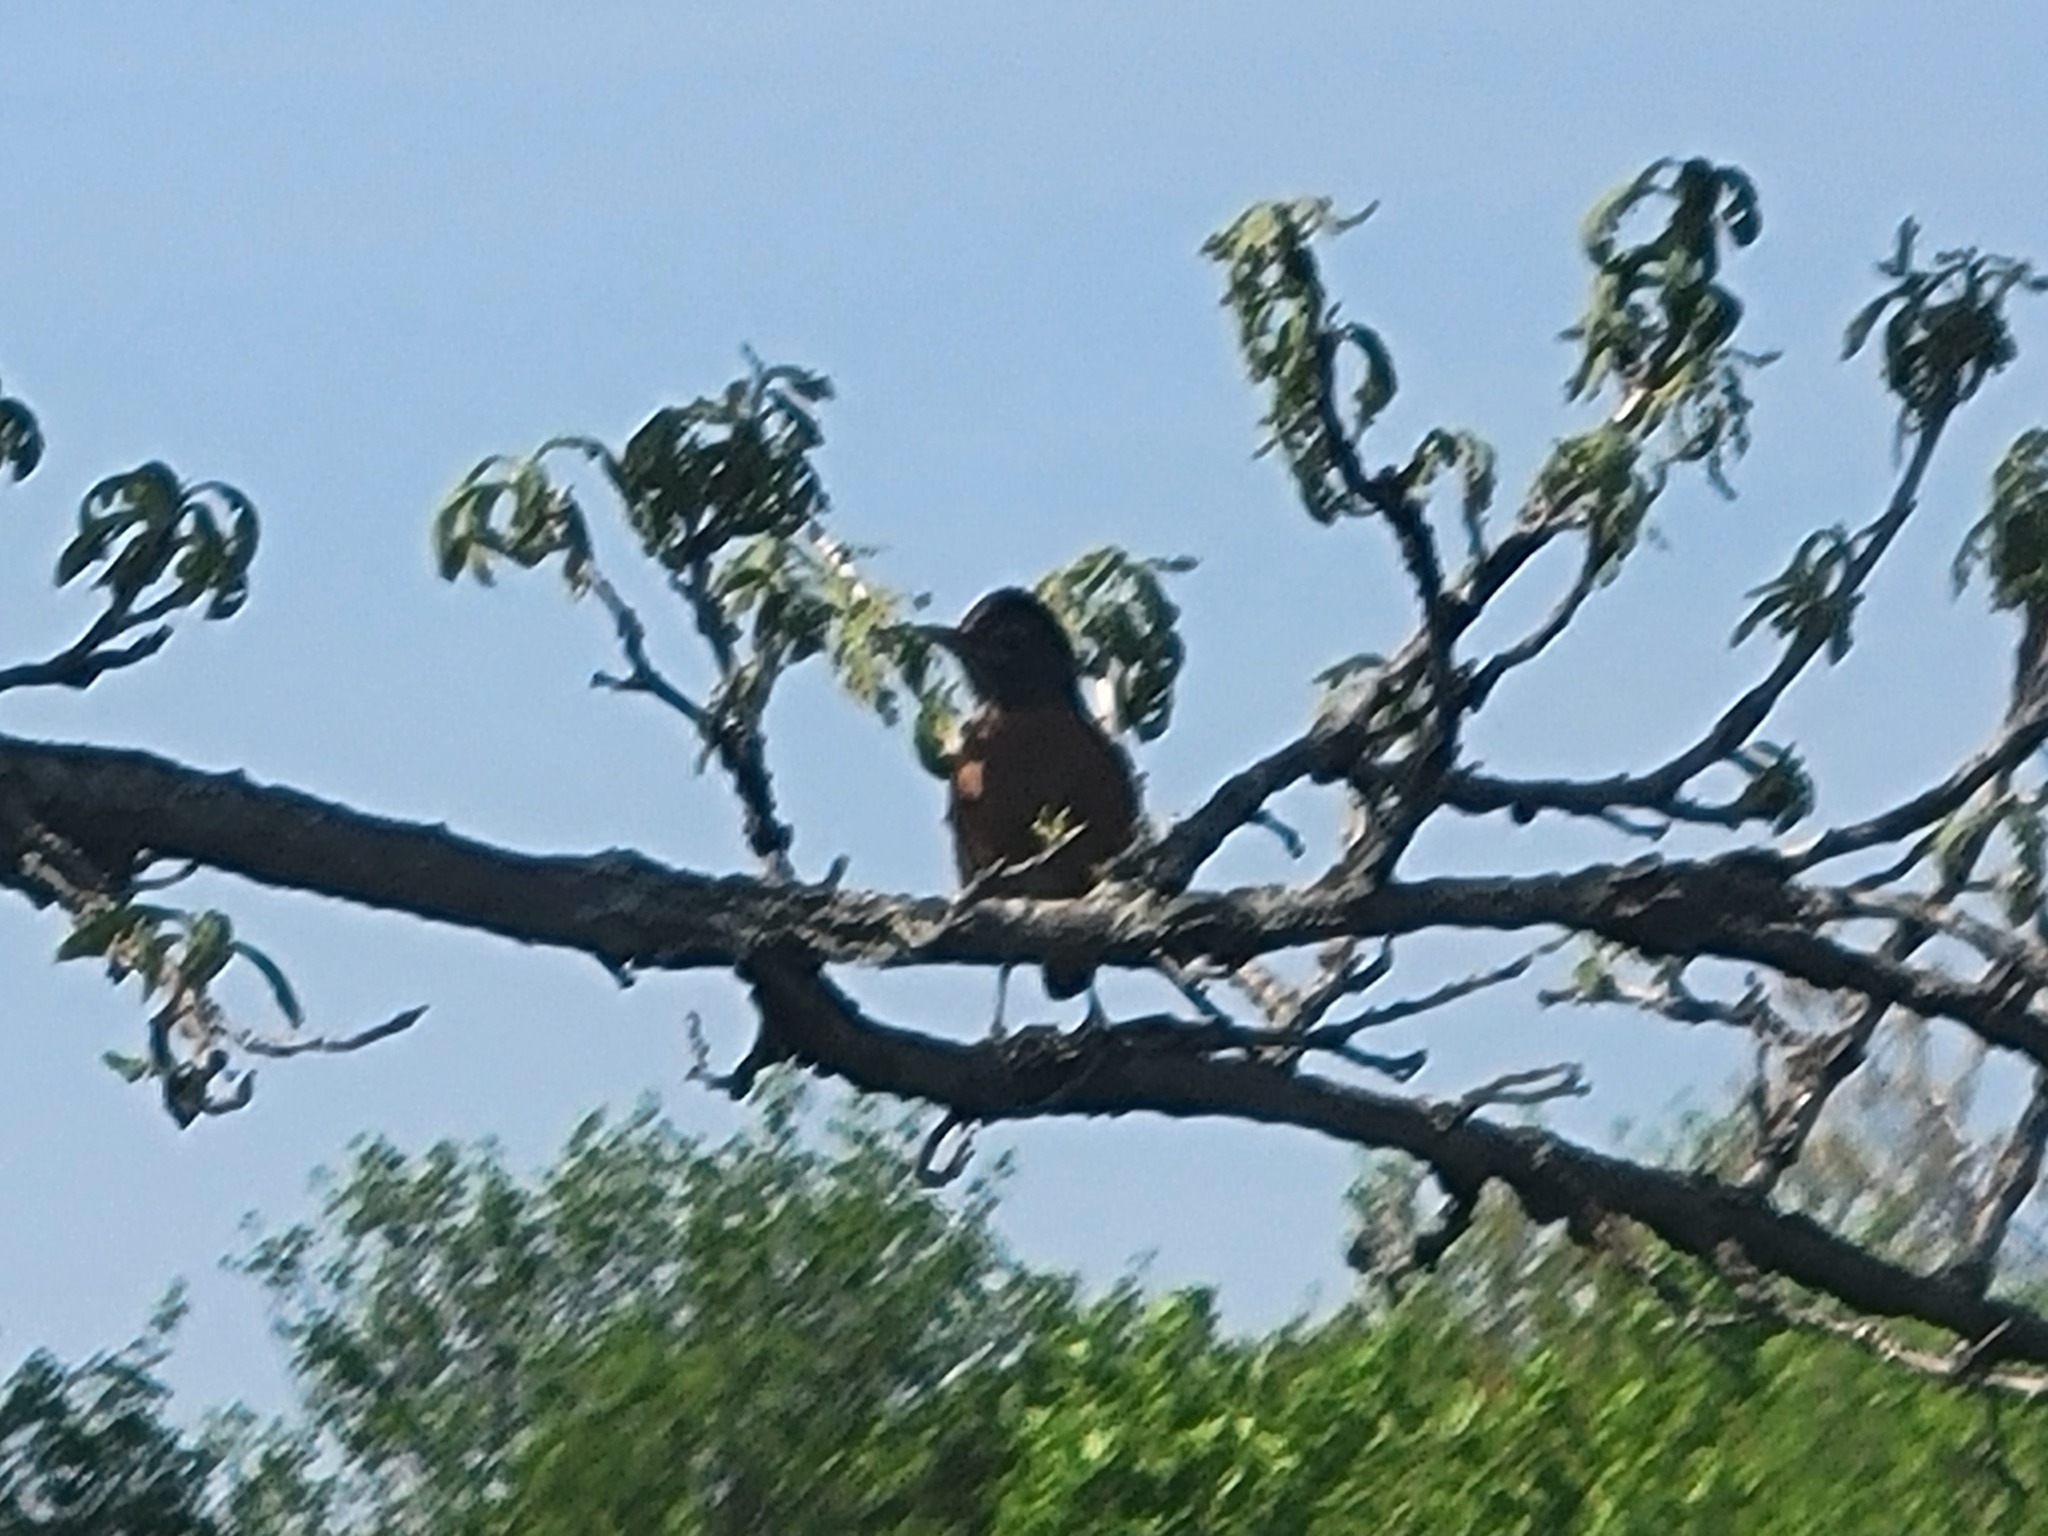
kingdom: Animalia
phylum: Chordata
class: Aves
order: Passeriformes
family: Turdidae
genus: Turdus
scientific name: Turdus migratorius
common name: American robin
